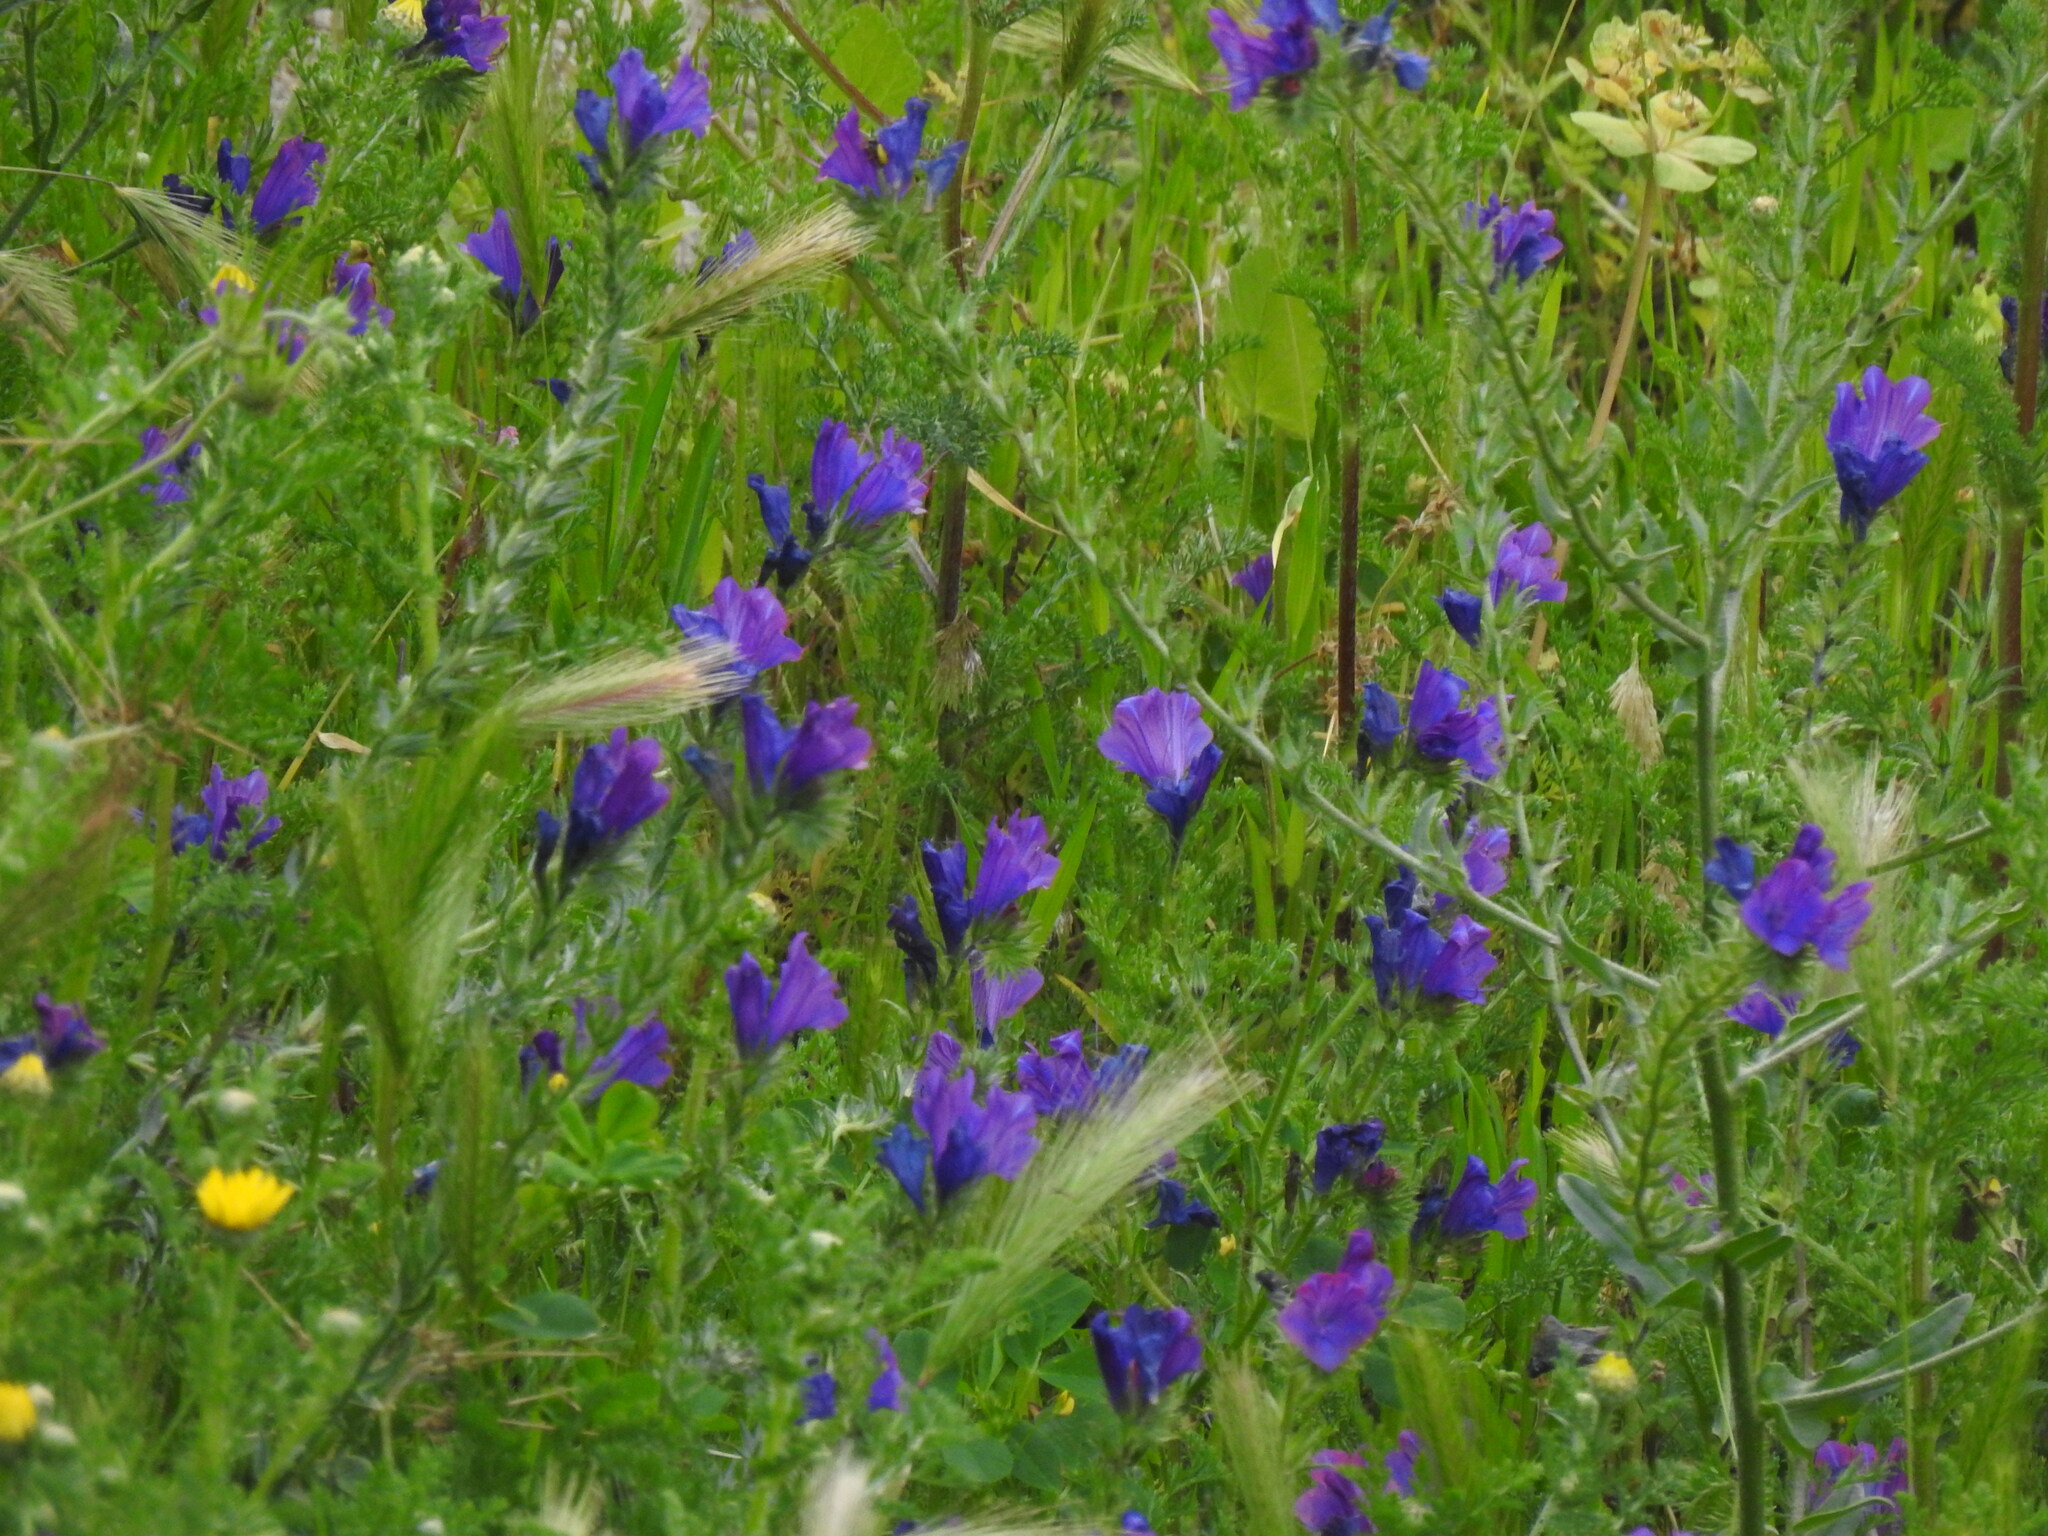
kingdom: Plantae
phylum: Tracheophyta
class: Magnoliopsida
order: Boraginales
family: Boraginaceae
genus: Echium
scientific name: Echium plantagineum
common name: Purple viper's-bugloss
